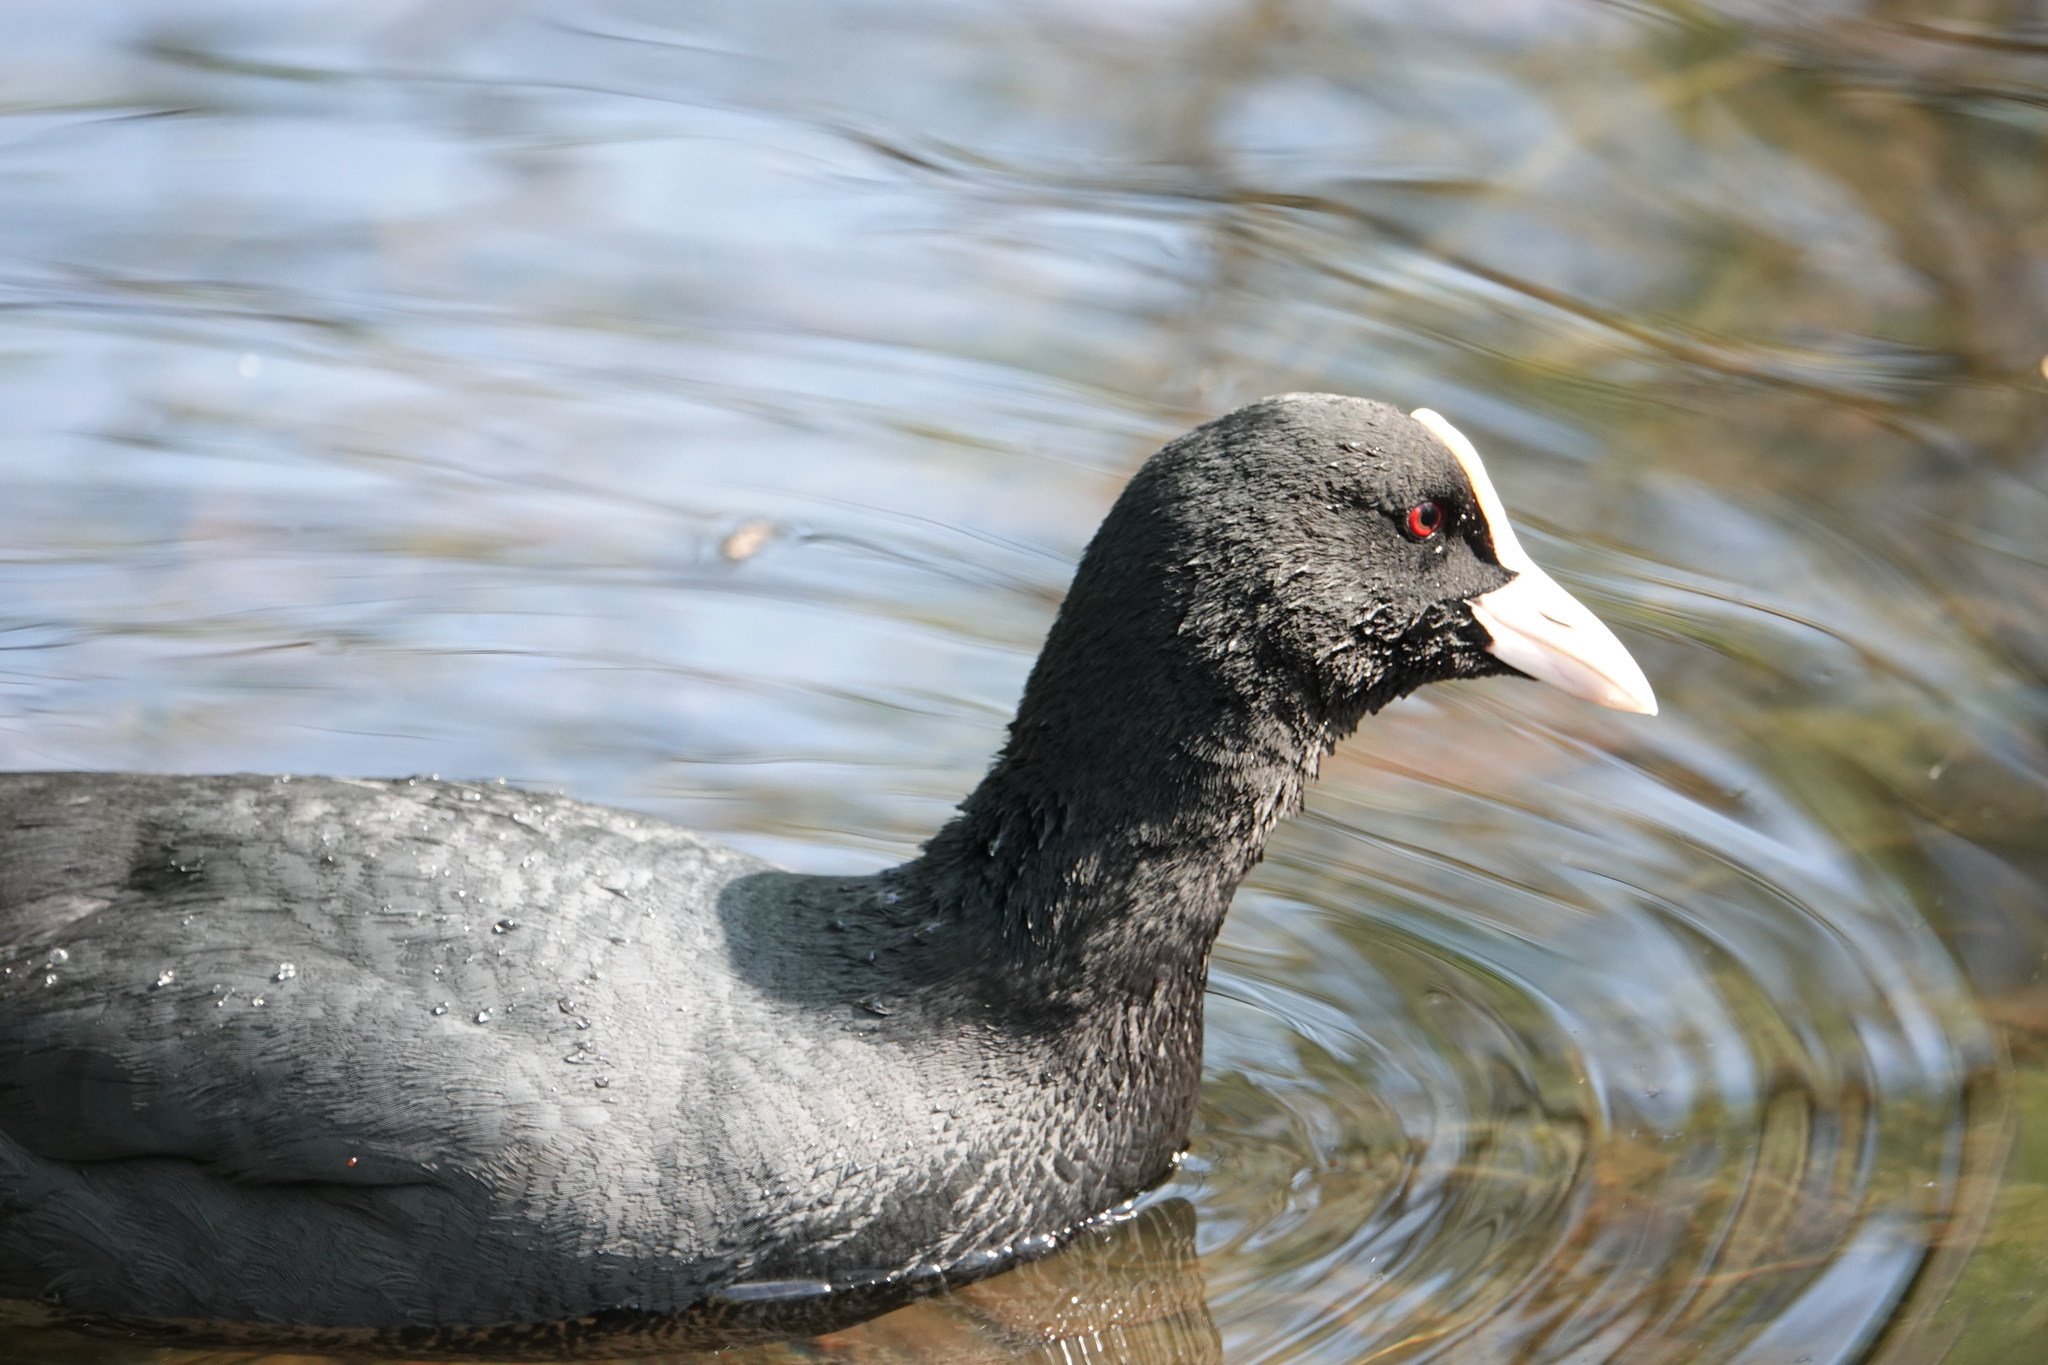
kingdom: Animalia
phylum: Chordata
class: Aves
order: Gruiformes
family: Rallidae
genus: Fulica
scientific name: Fulica atra
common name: Eurasian coot
